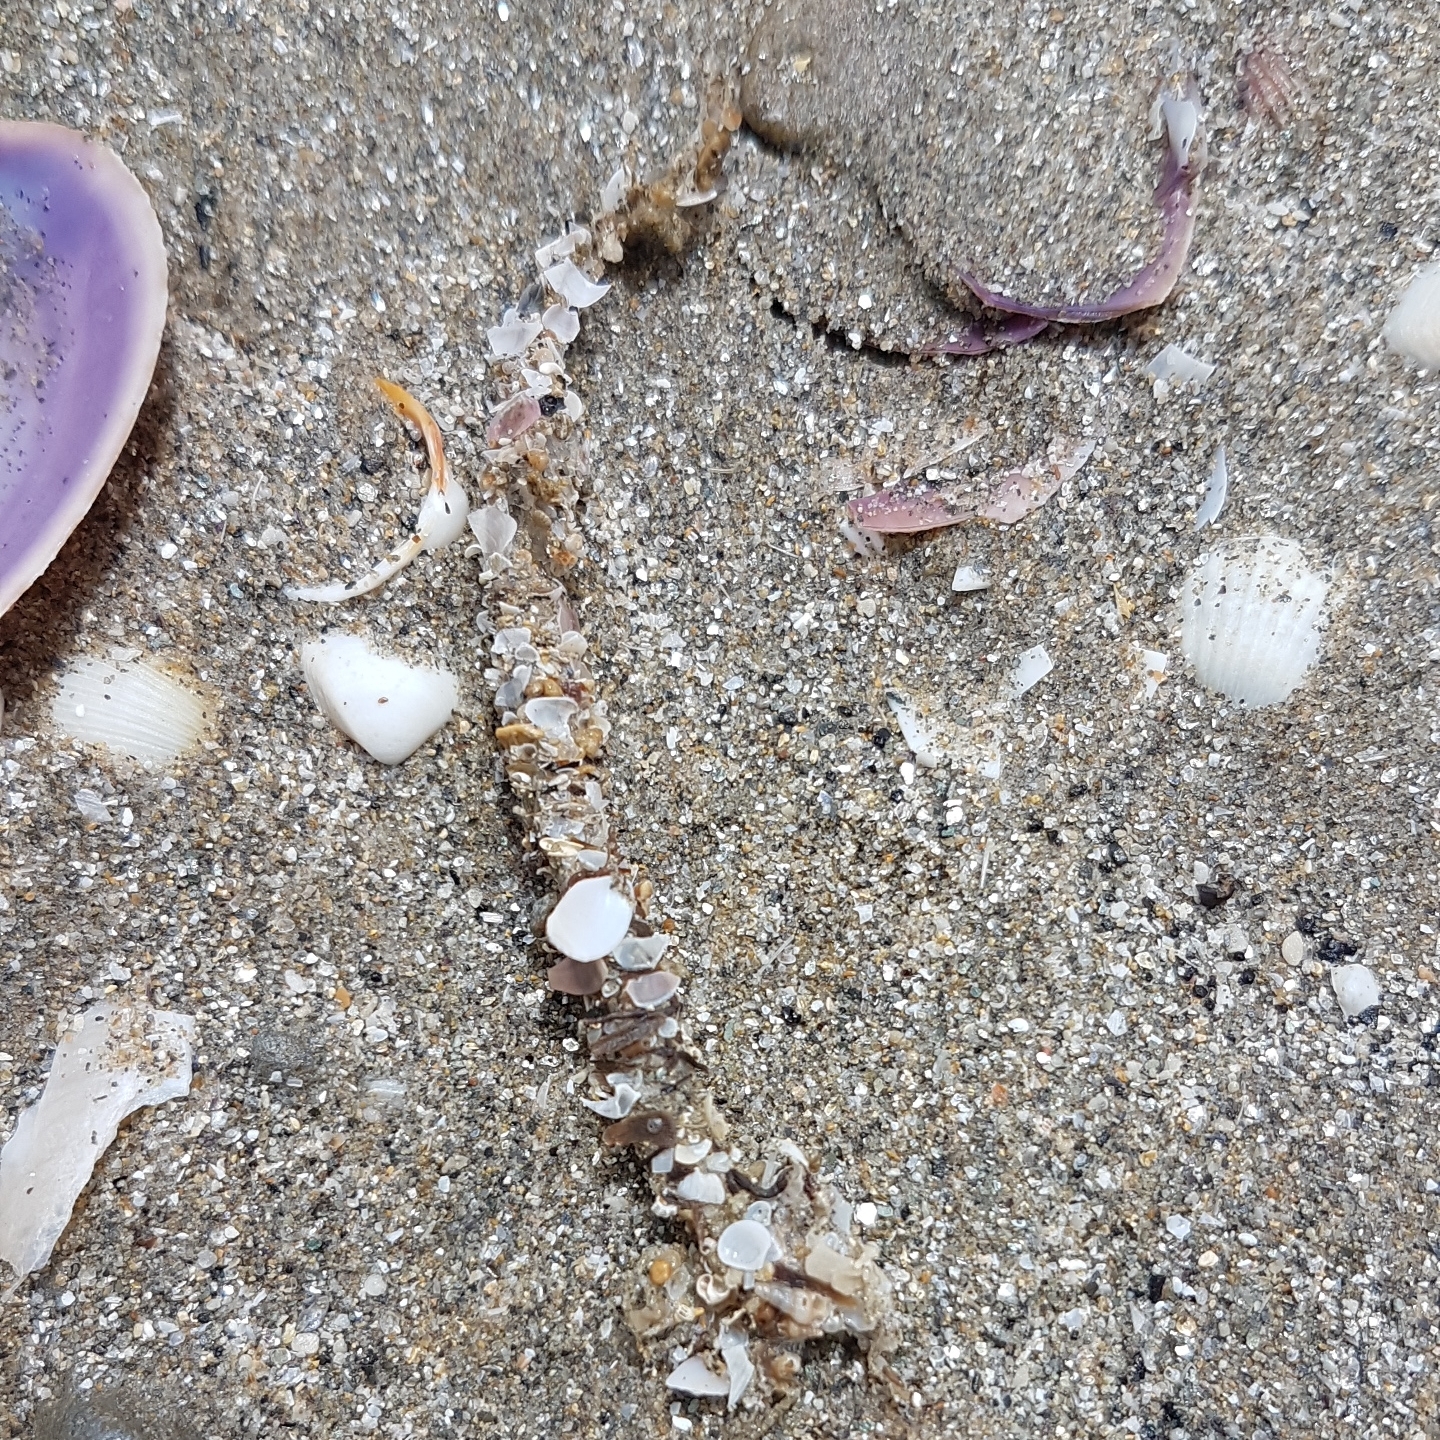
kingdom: Animalia
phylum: Annelida
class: Polychaeta
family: Terebellidae
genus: Lanice
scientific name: Lanice conchilega
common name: Sand mason
